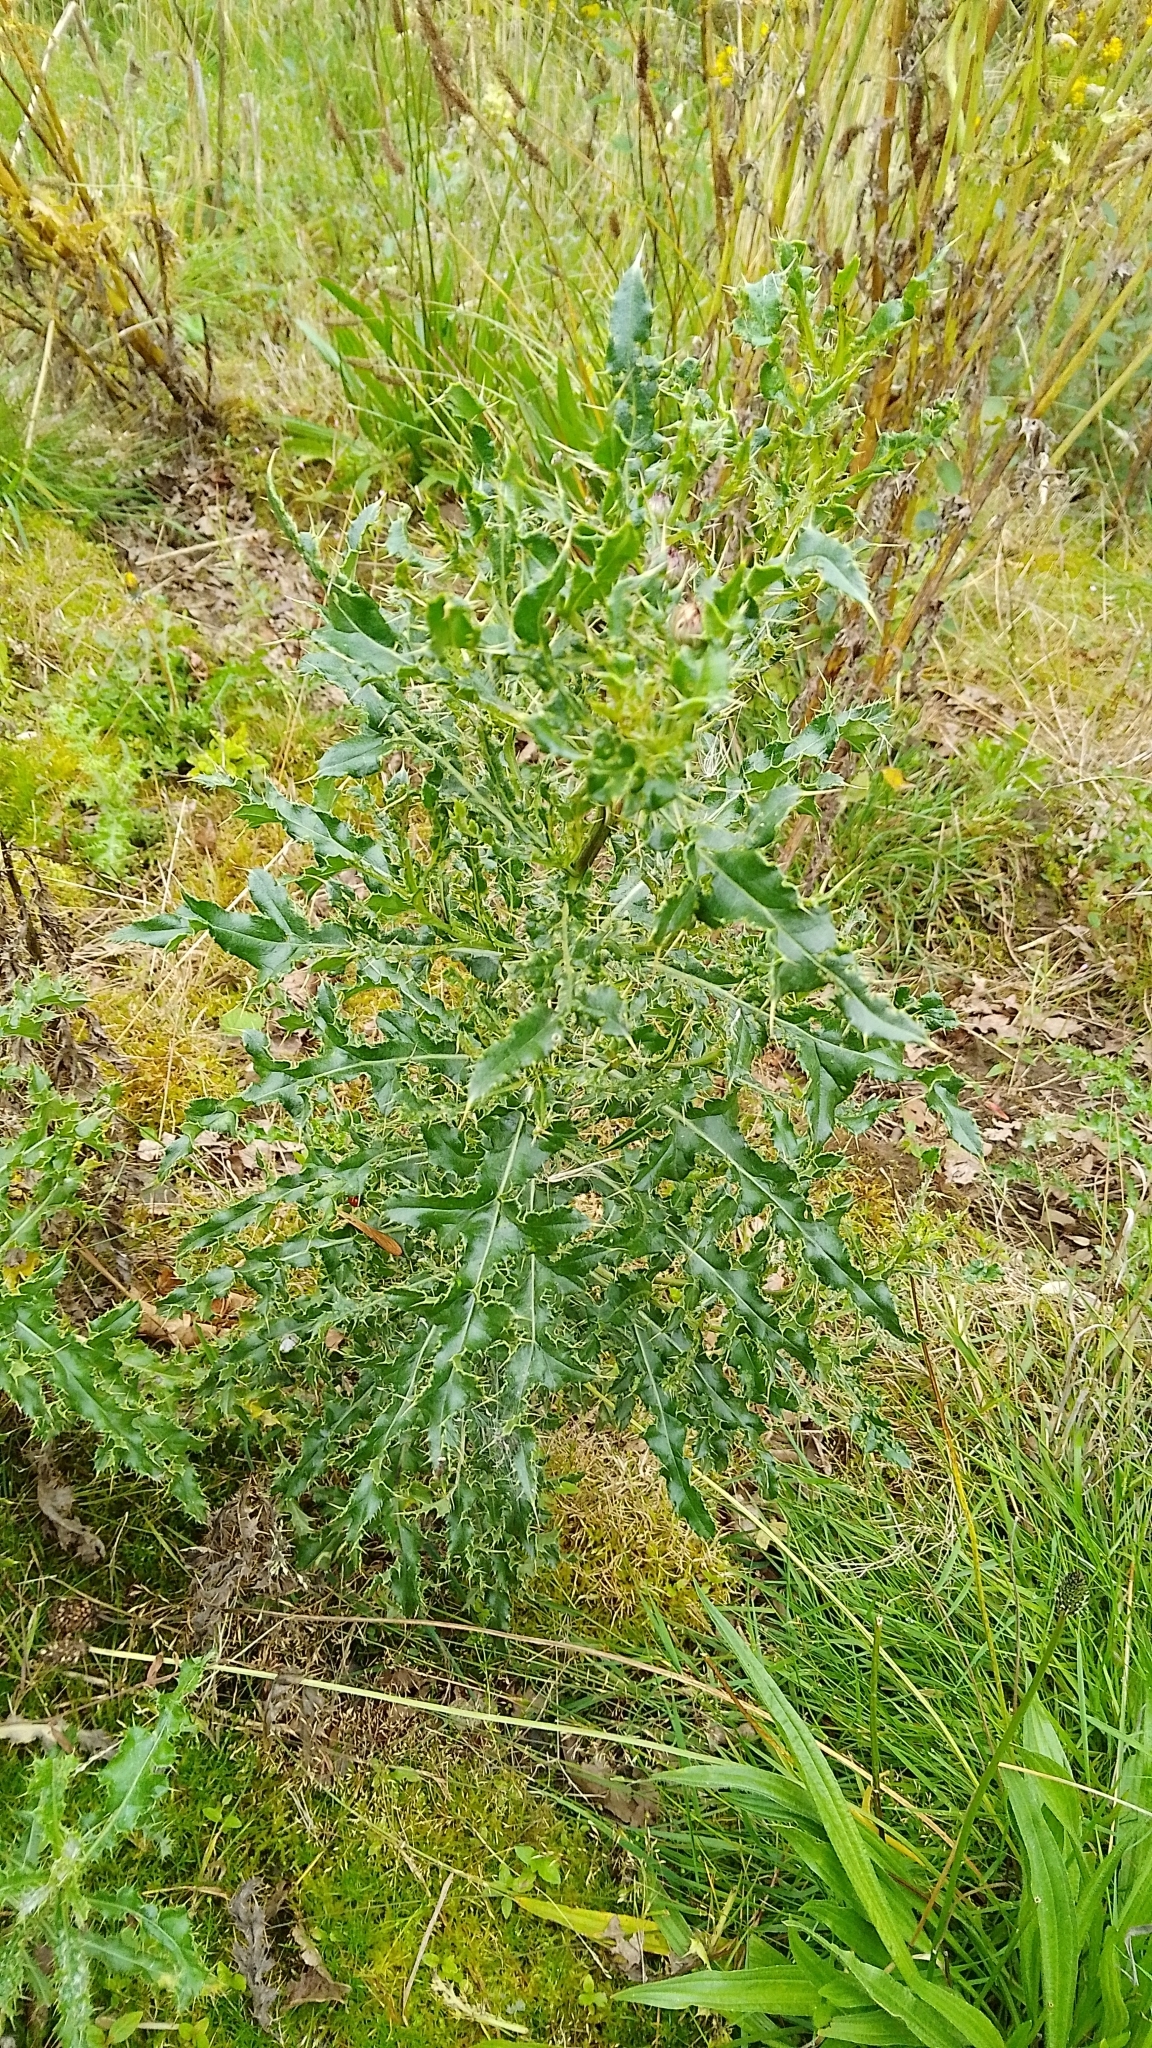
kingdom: Plantae
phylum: Tracheophyta
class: Magnoliopsida
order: Asterales
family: Asteraceae
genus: Cirsium
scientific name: Cirsium arvense
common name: Creeping thistle
